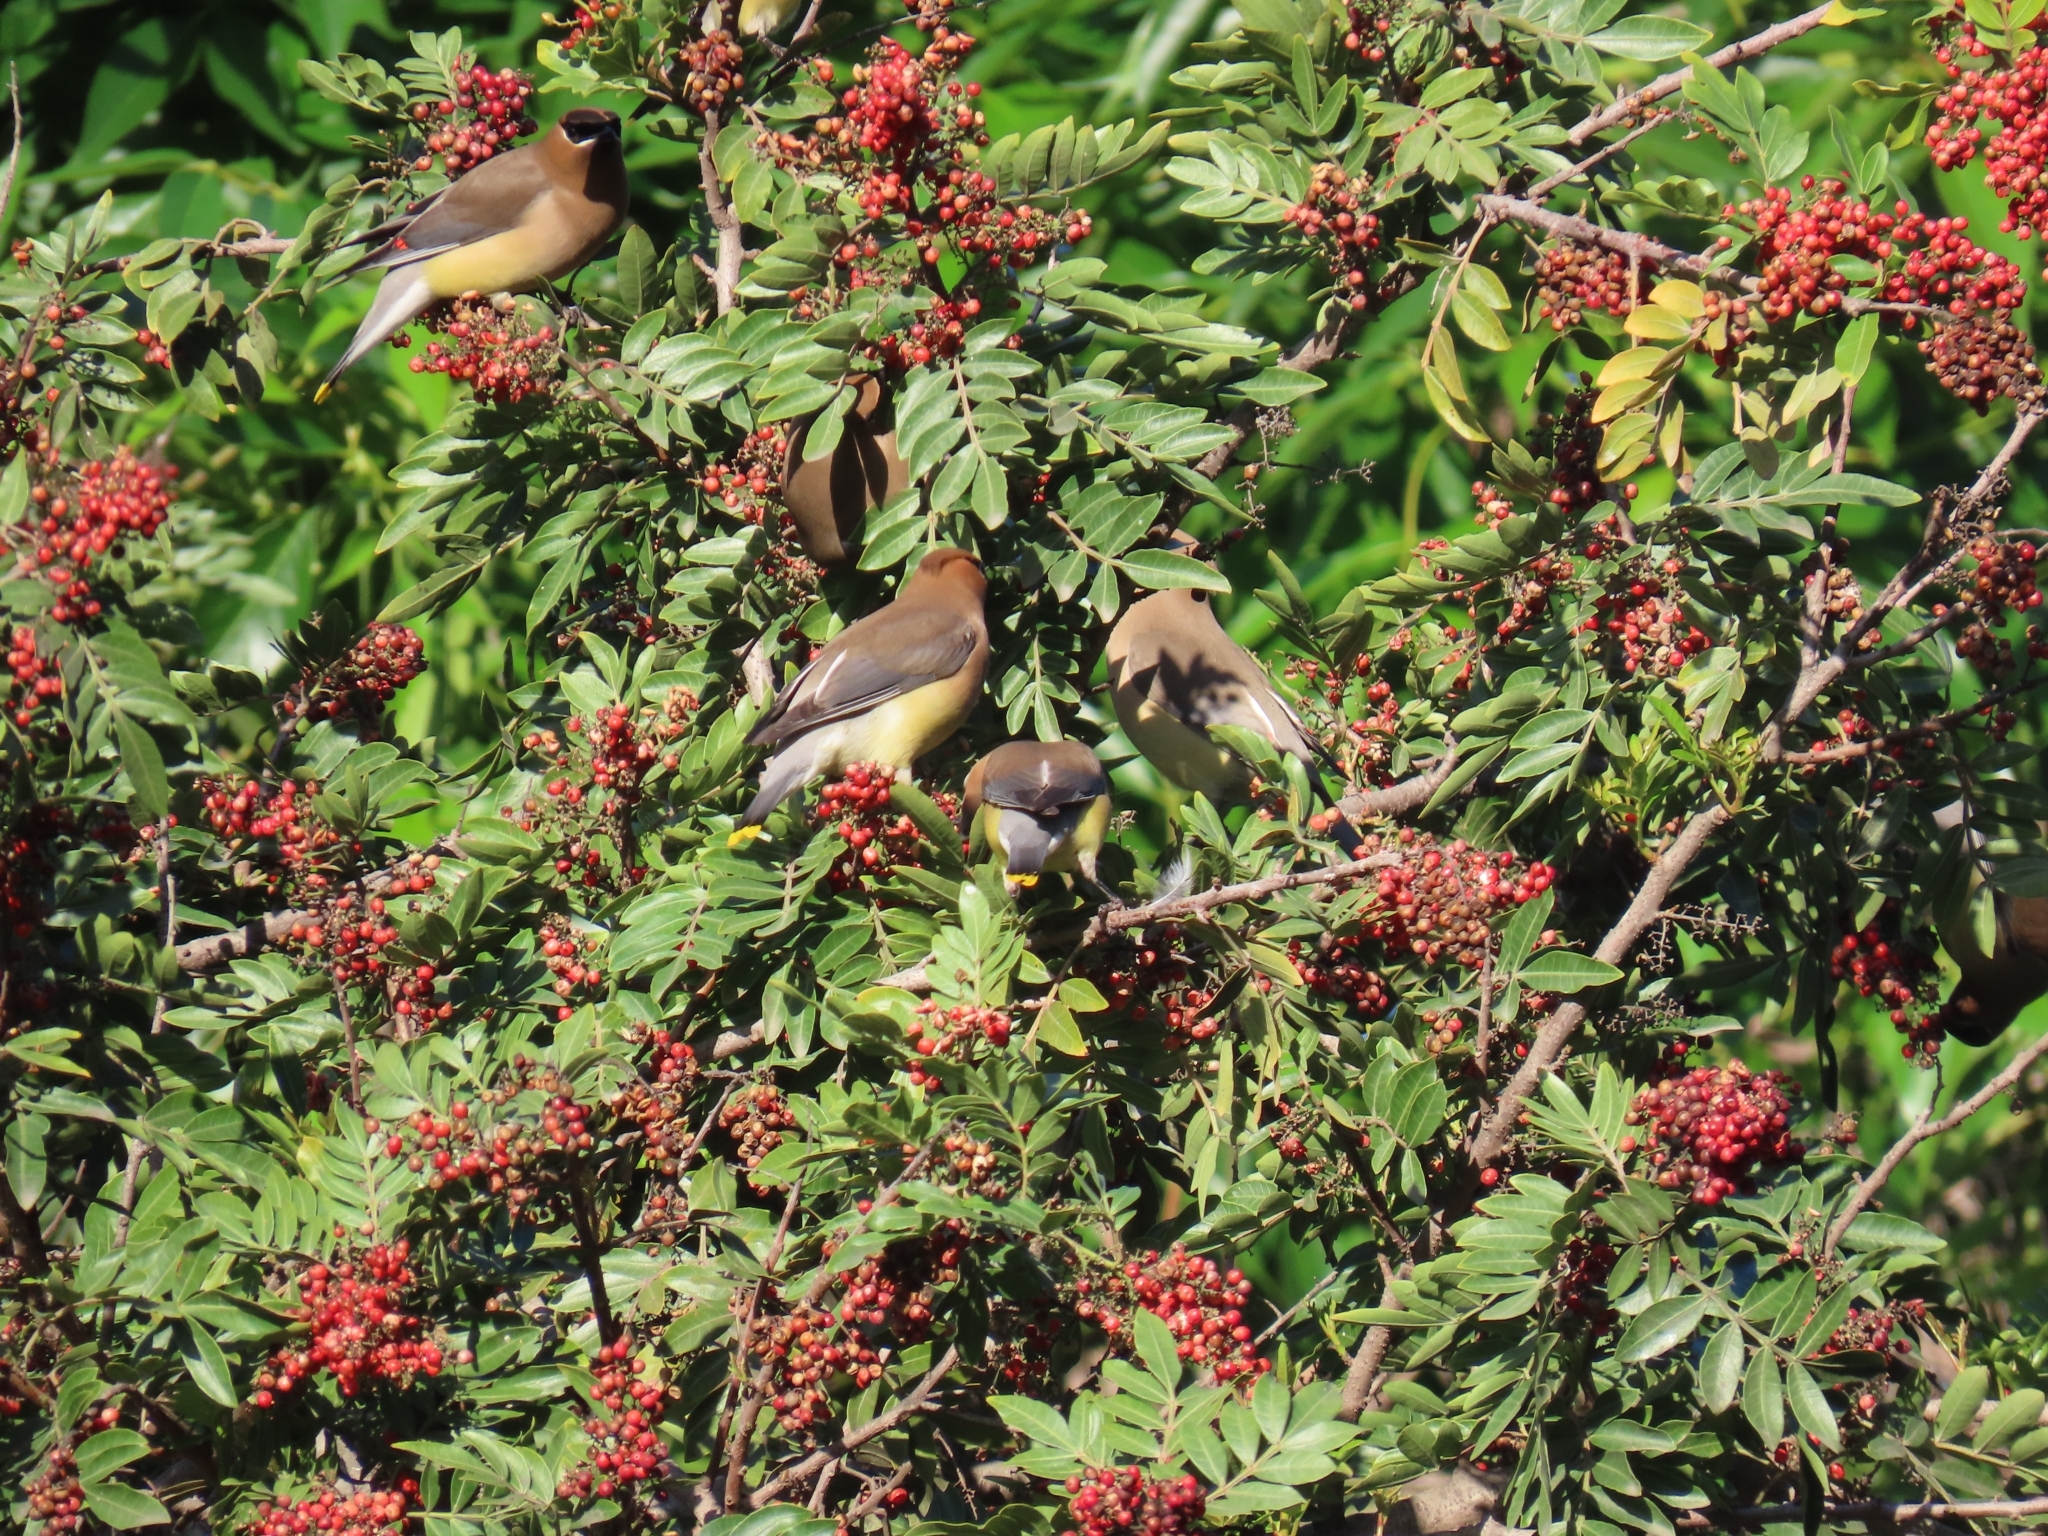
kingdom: Animalia
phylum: Chordata
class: Aves
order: Passeriformes
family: Bombycillidae
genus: Bombycilla
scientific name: Bombycilla cedrorum
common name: Cedar waxwing
